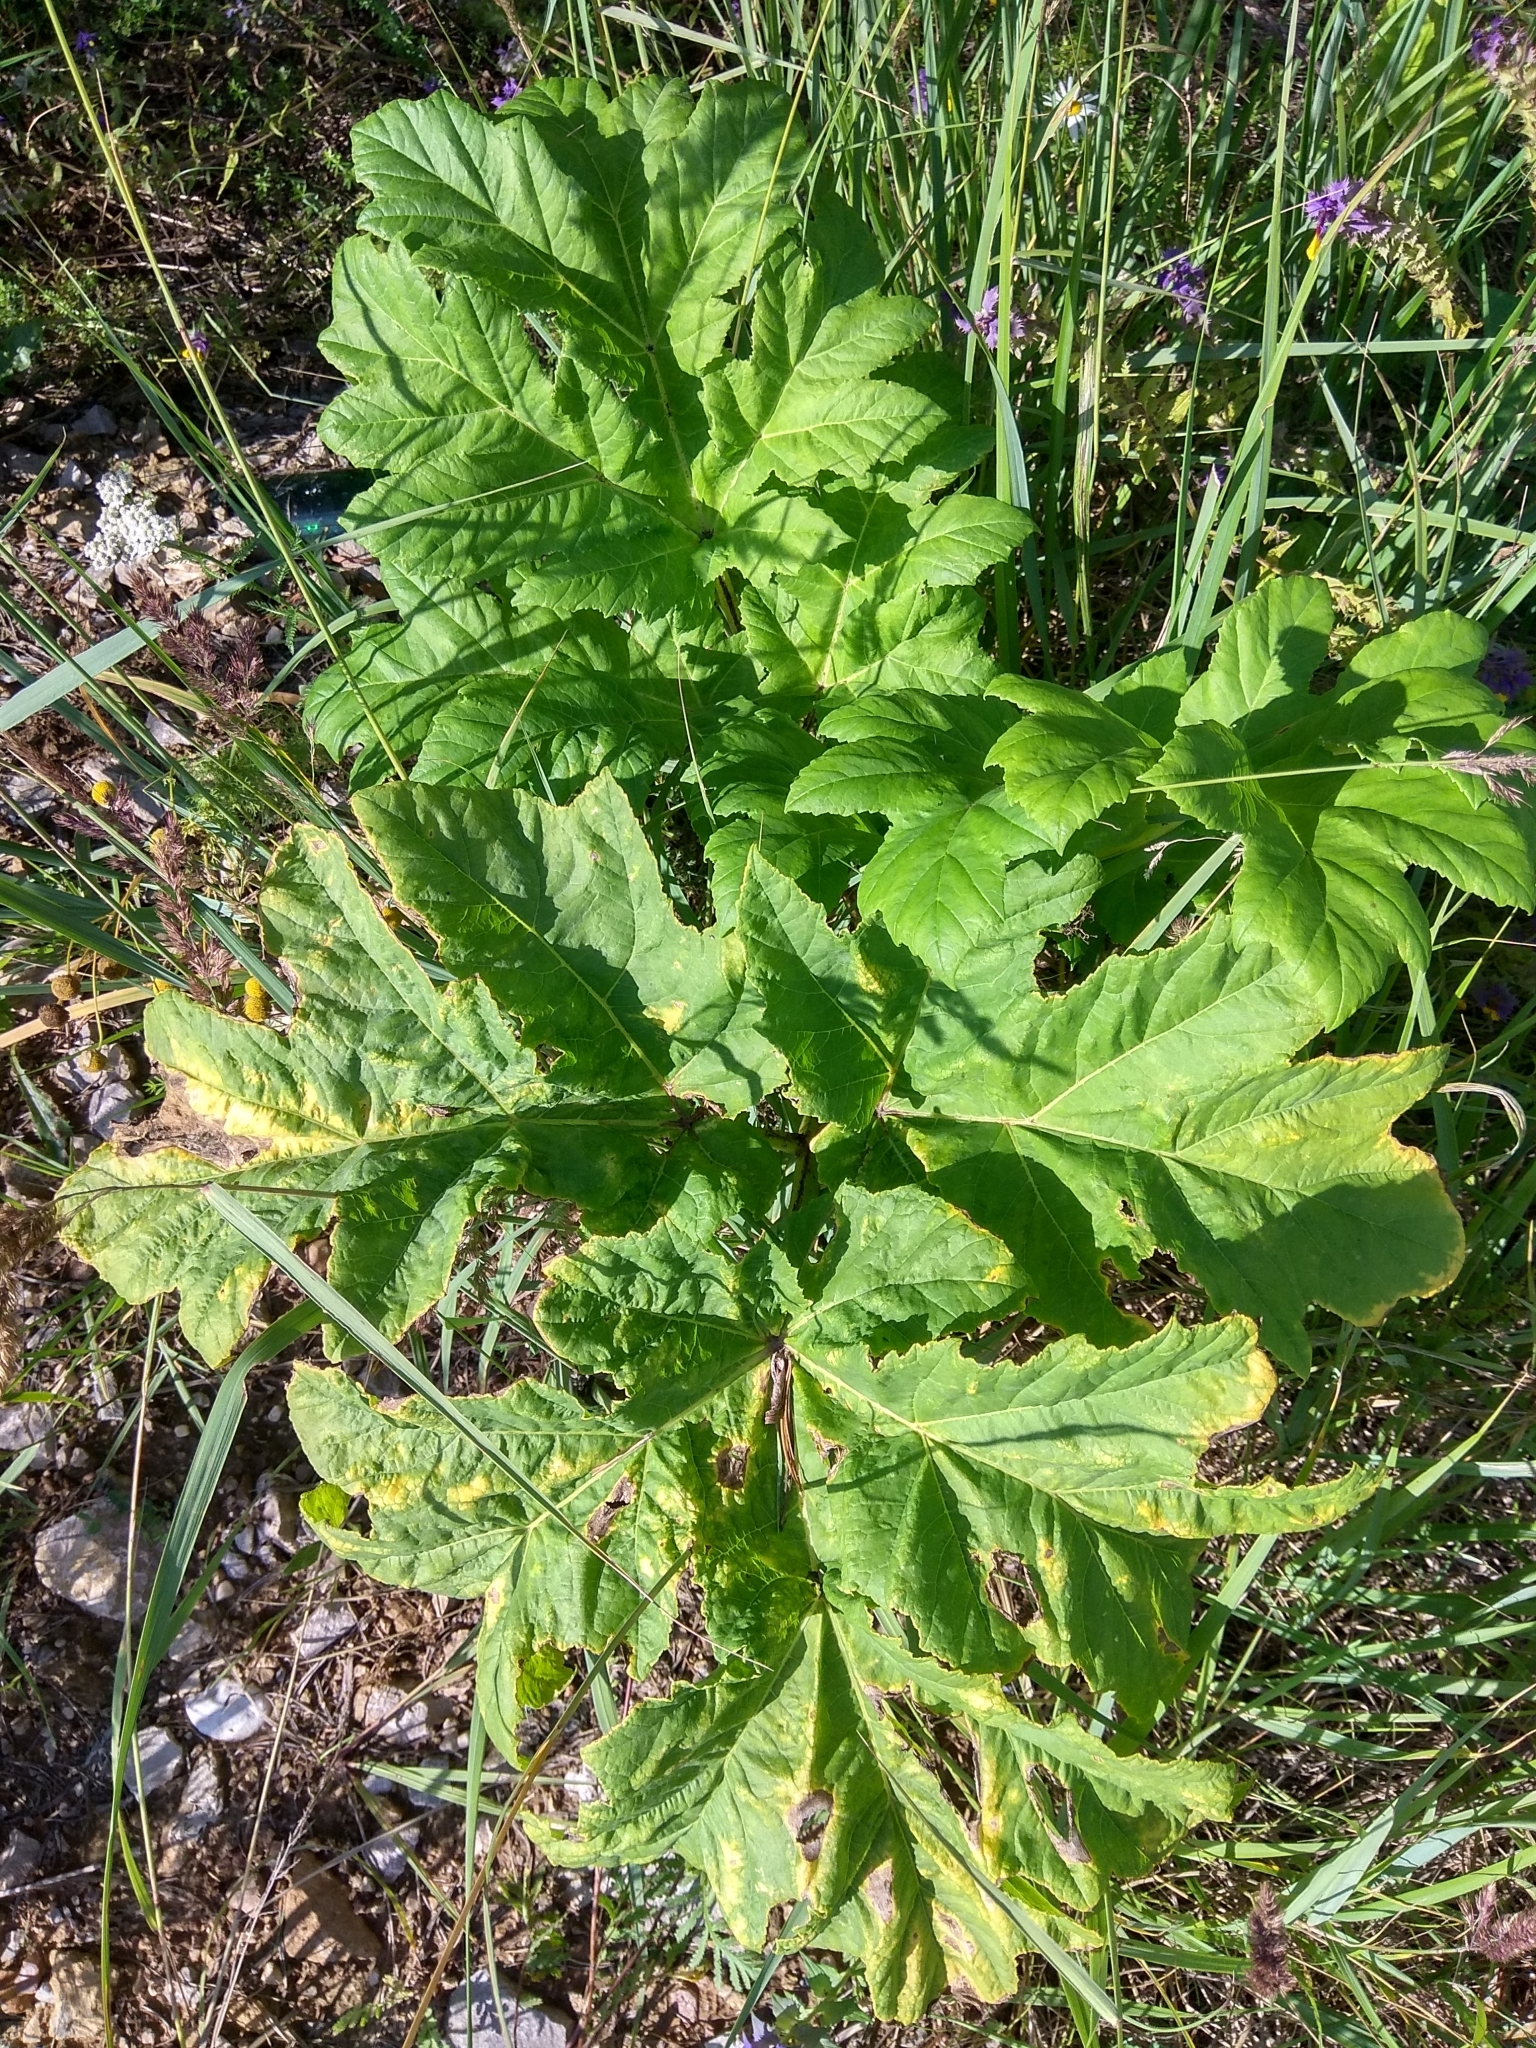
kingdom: Plantae
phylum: Tracheophyta
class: Magnoliopsida
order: Apiales
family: Apiaceae
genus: Heracleum
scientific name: Heracleum sosnowskyi
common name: Sosnowsky's hogweed
